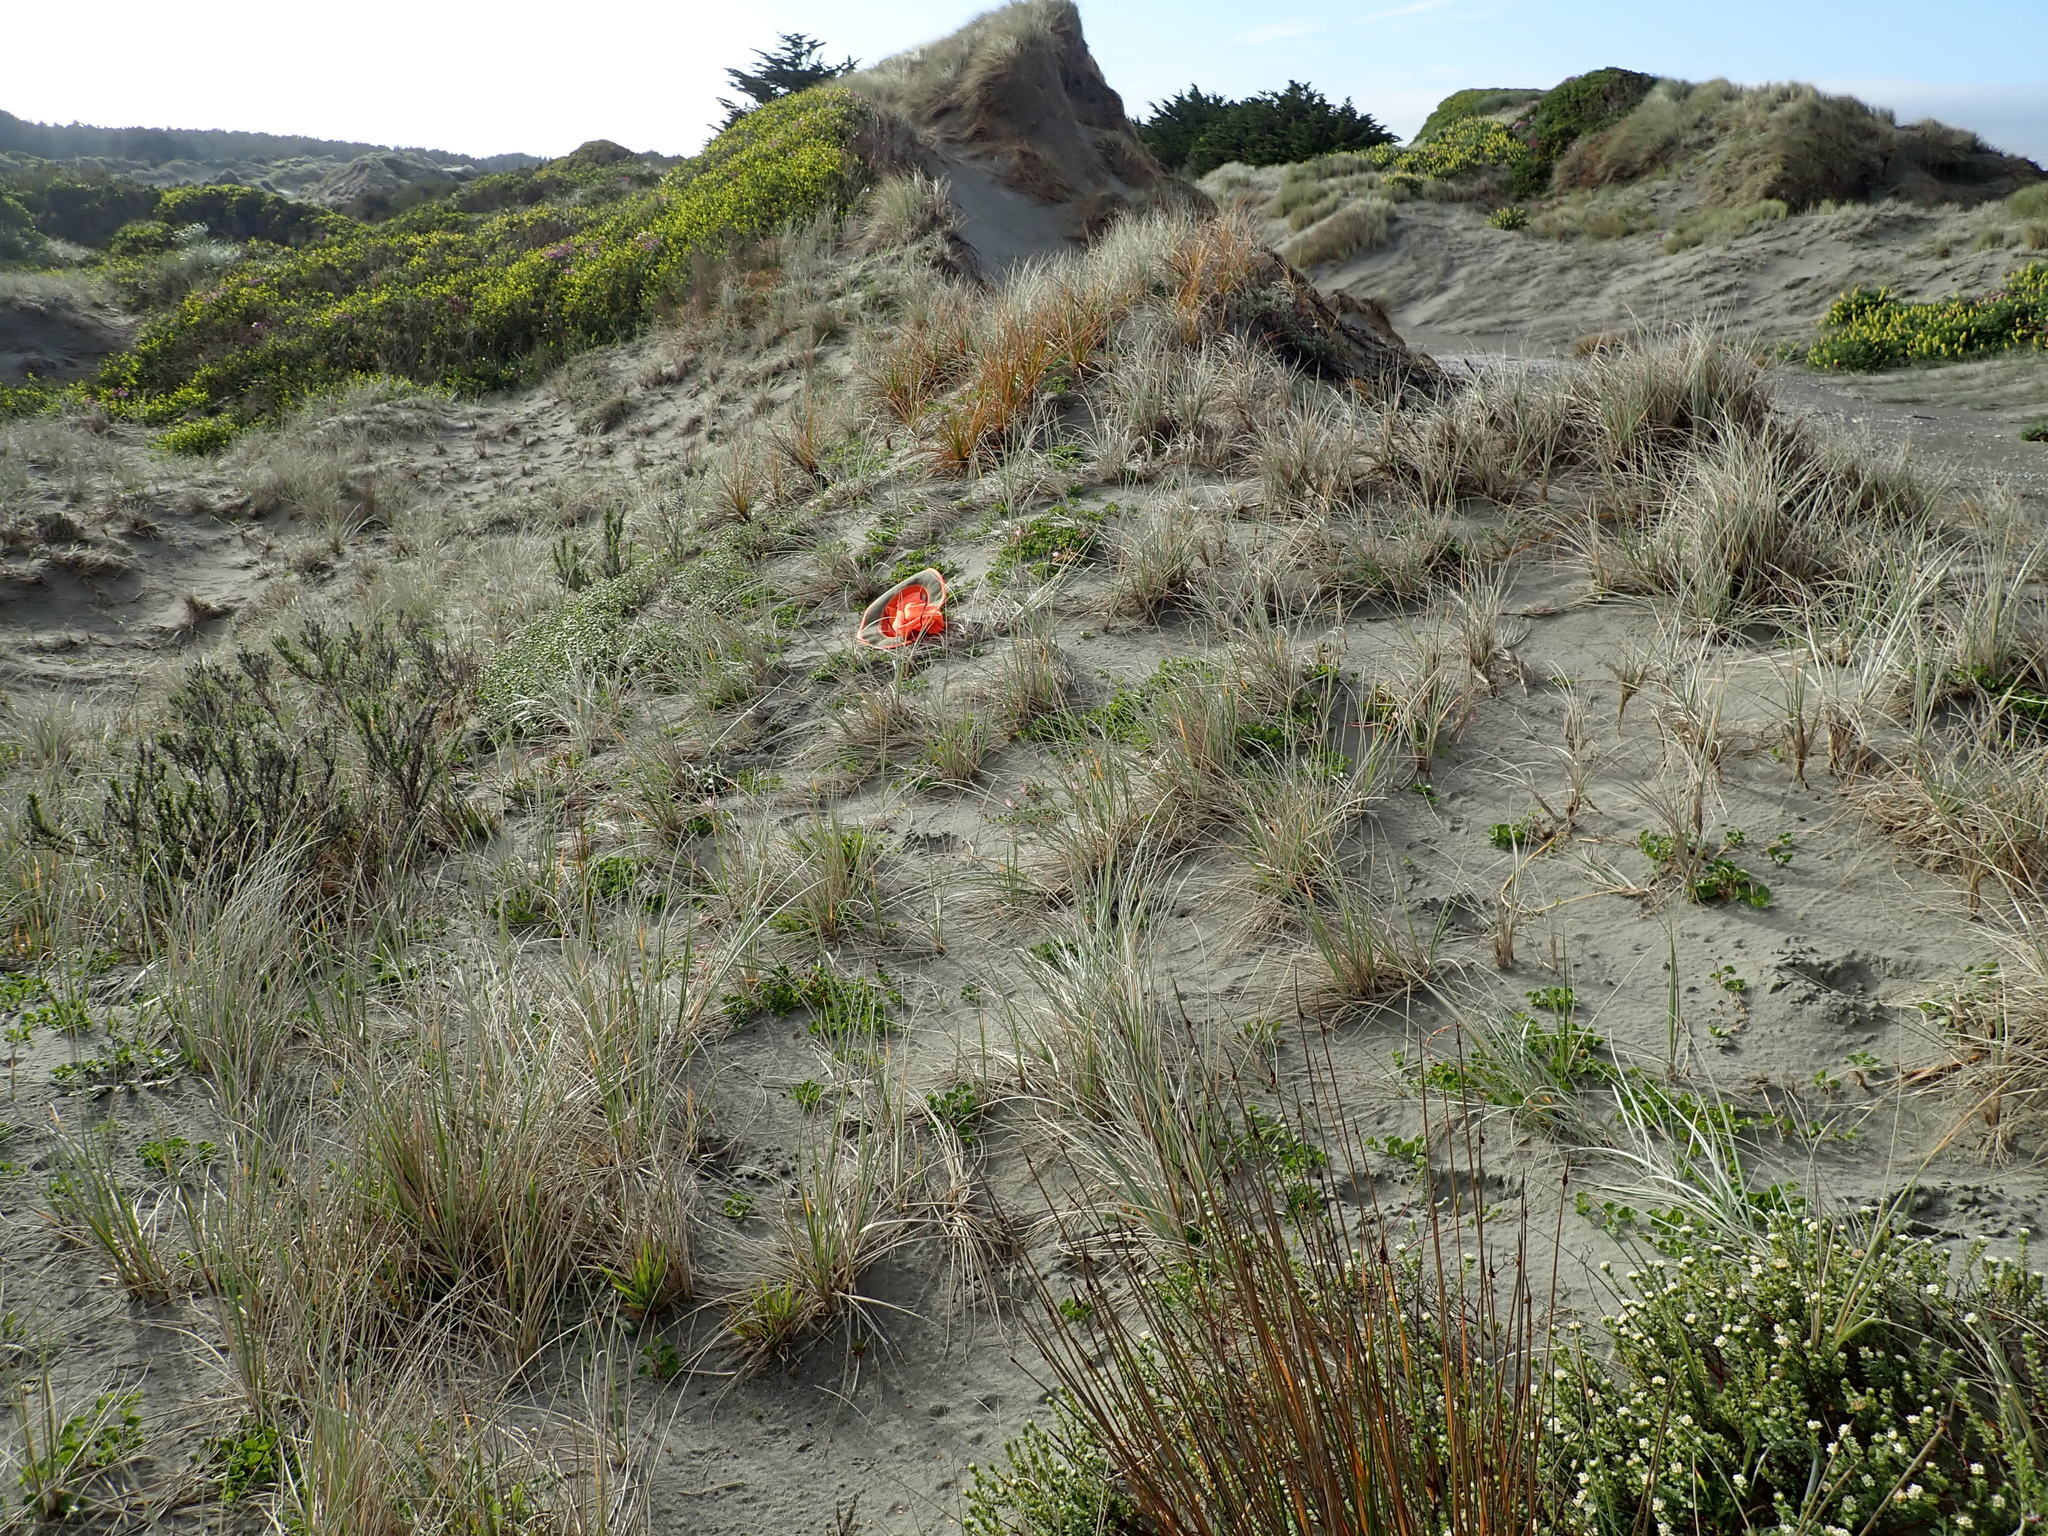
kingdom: Plantae
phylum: Tracheophyta
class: Magnoliopsida
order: Solanales
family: Convolvulaceae
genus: Calystegia
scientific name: Calystegia soldanella
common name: Sea bindweed
